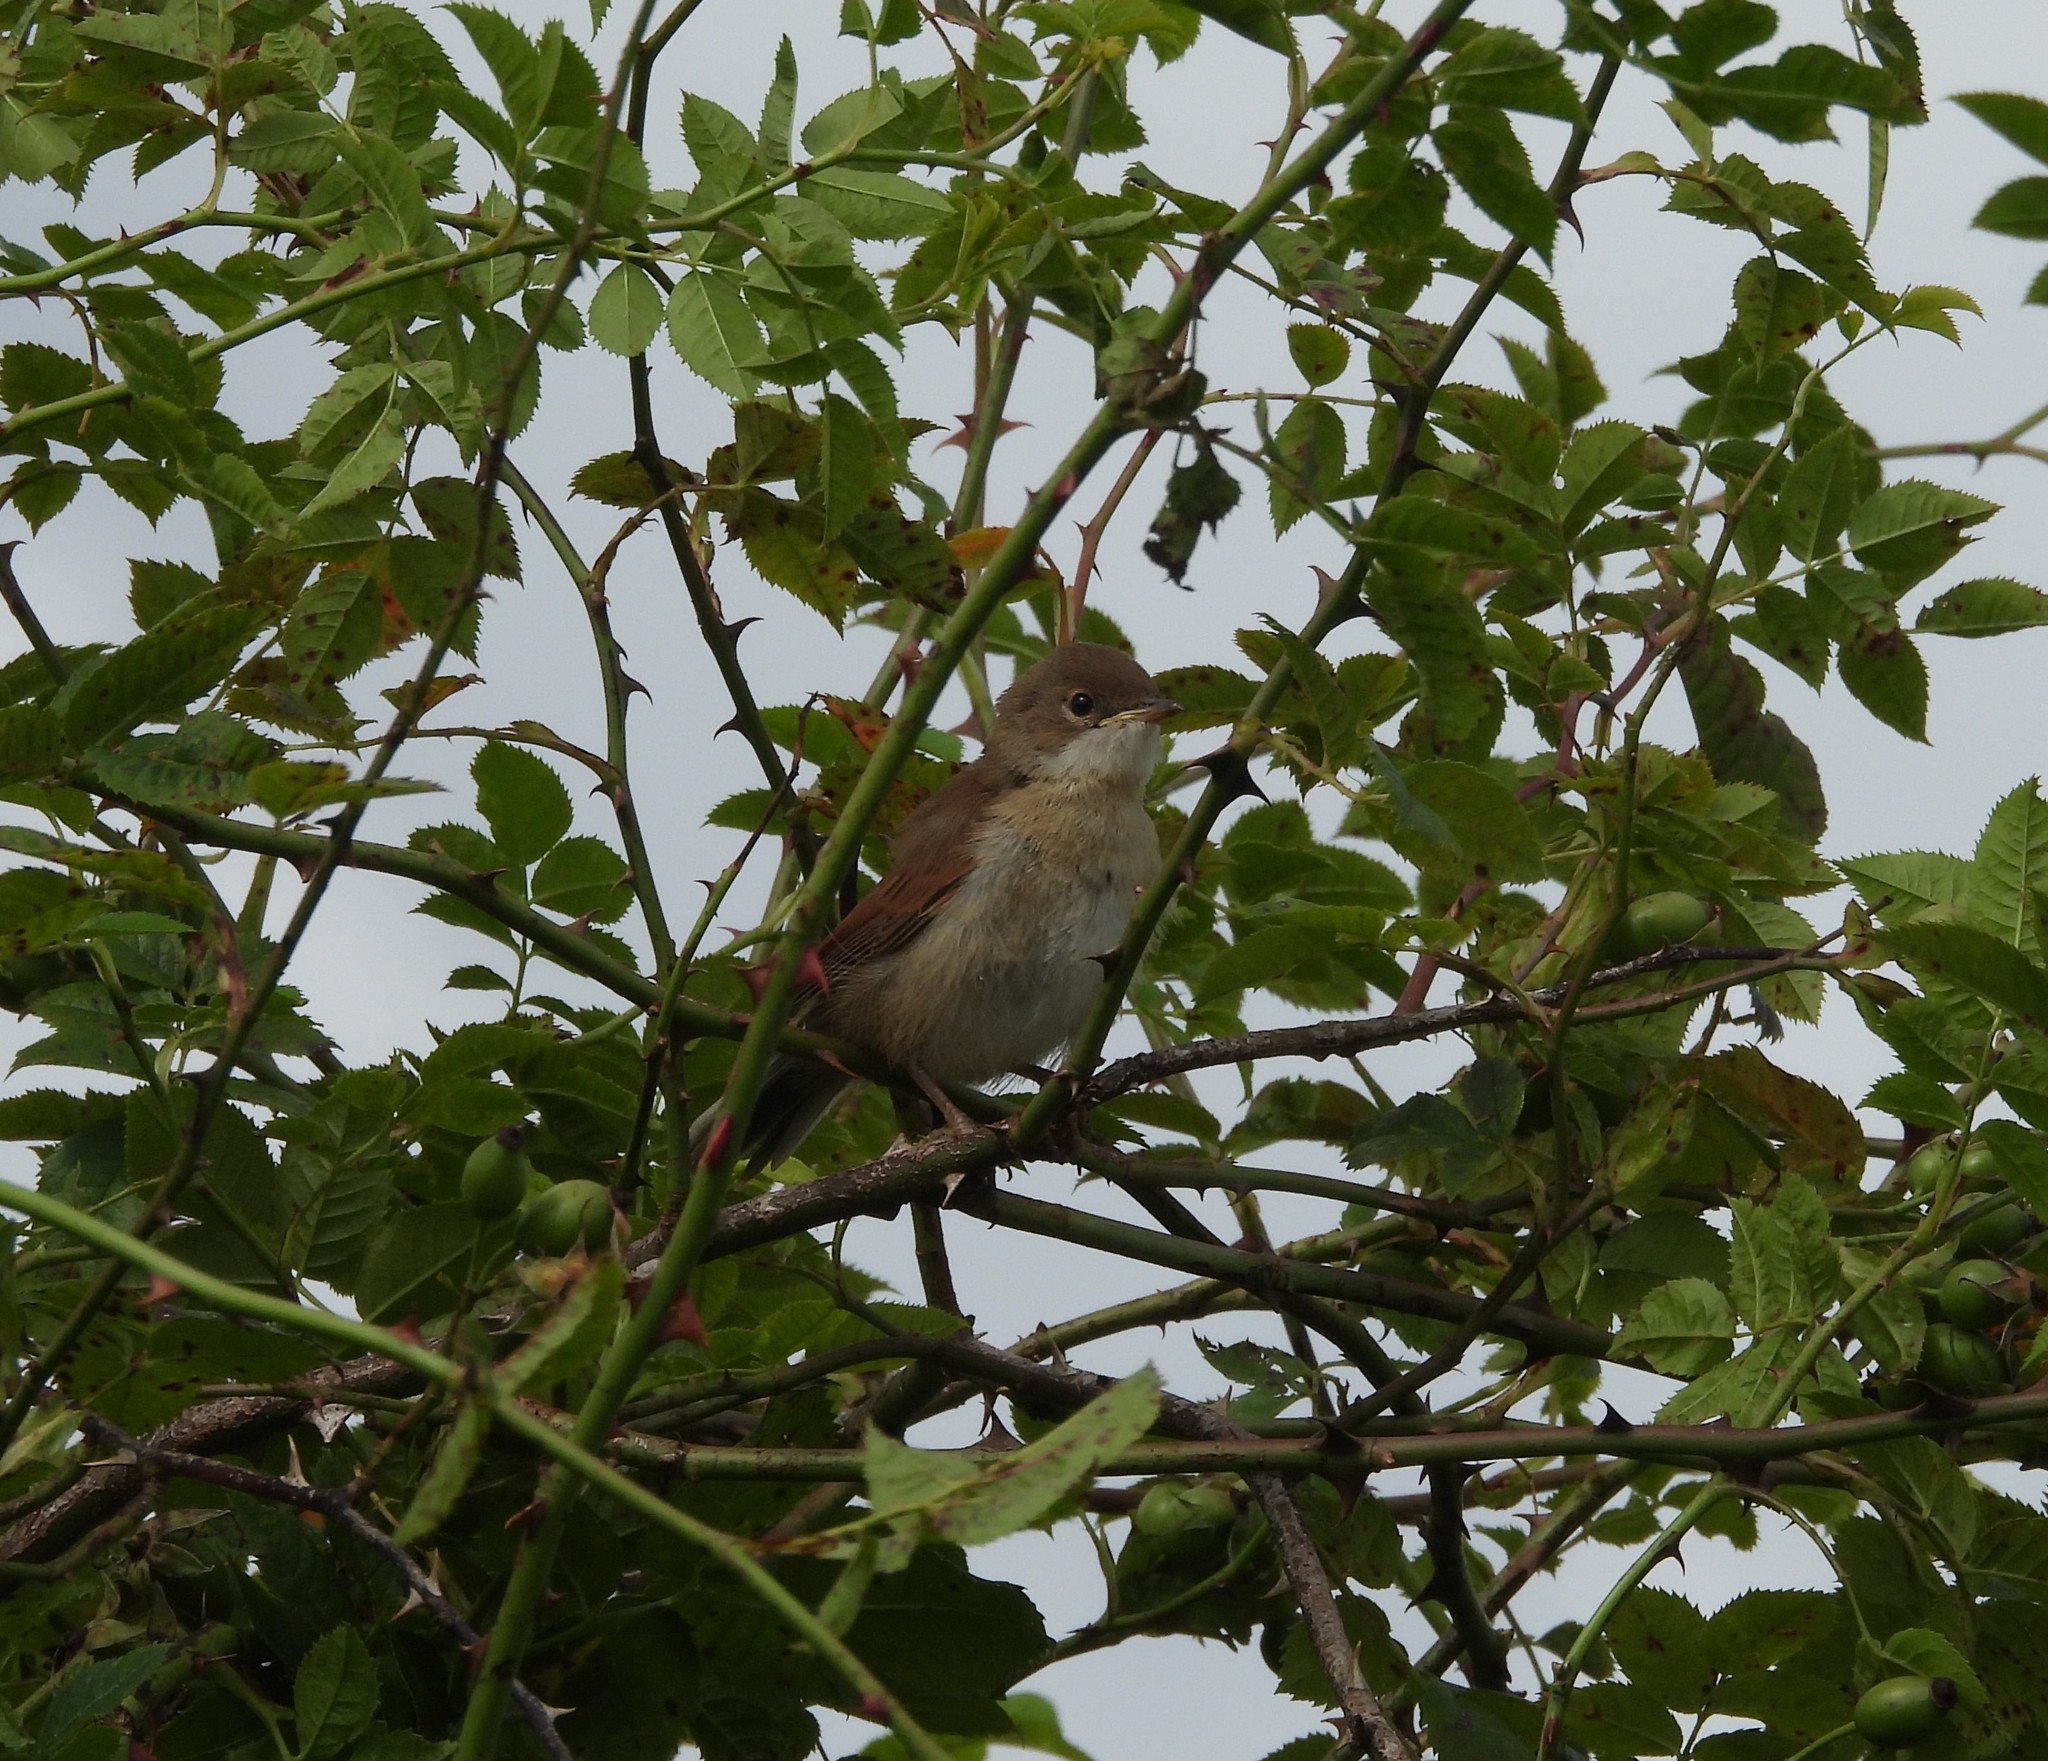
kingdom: Animalia
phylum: Chordata
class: Aves
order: Passeriformes
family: Sylviidae
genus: Sylvia
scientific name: Sylvia communis
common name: Common whitethroat
